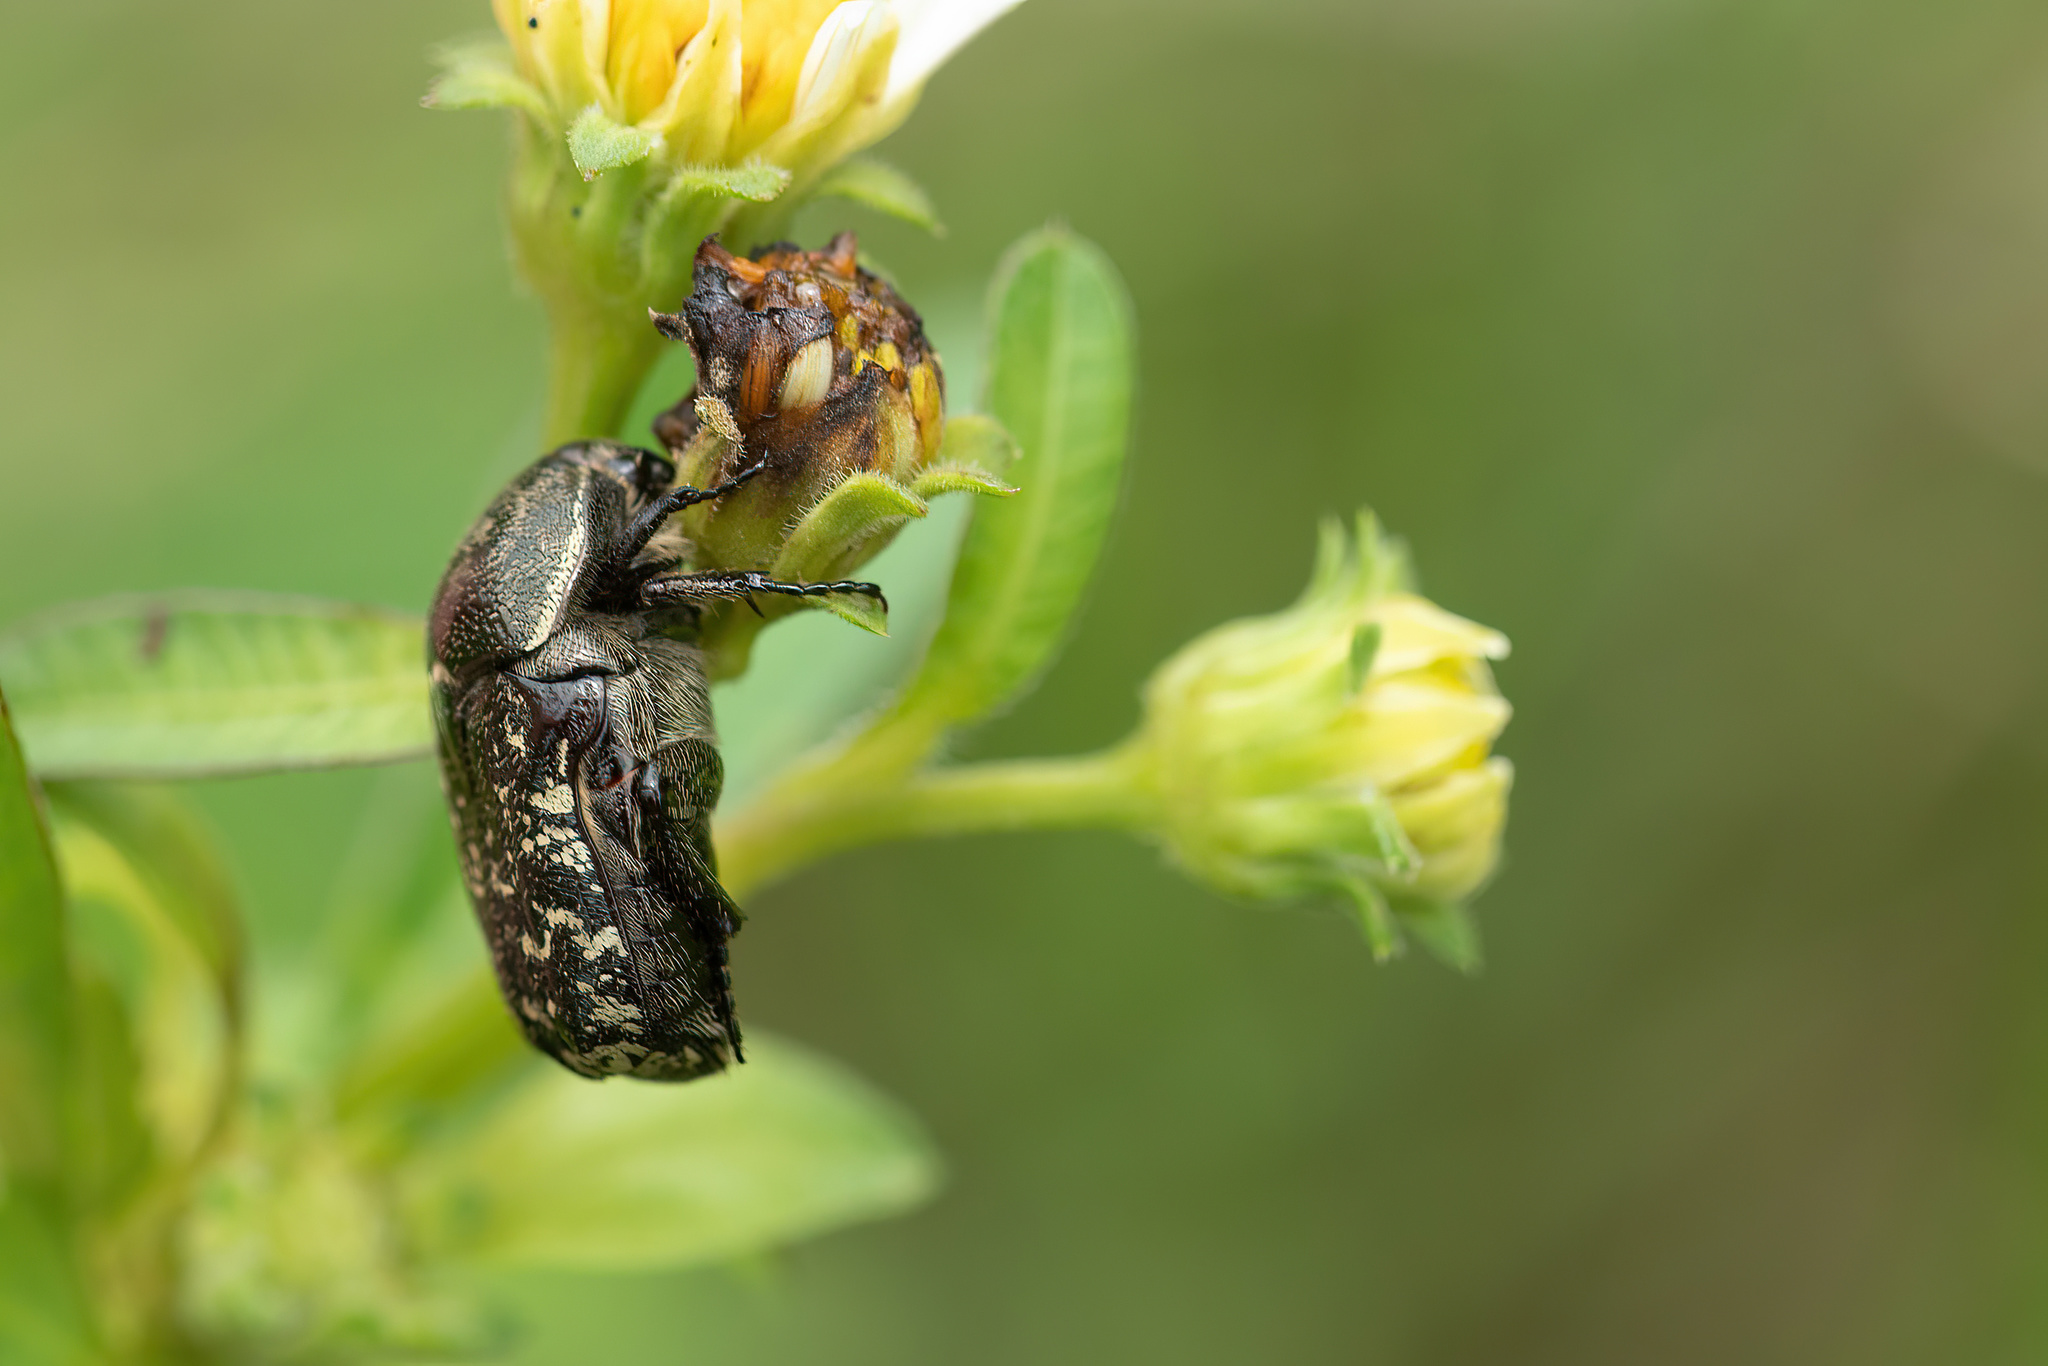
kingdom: Animalia
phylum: Arthropoda
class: Insecta
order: Coleoptera
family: Scarabaeidae
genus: Euphoria
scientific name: Euphoria sepulcralis
